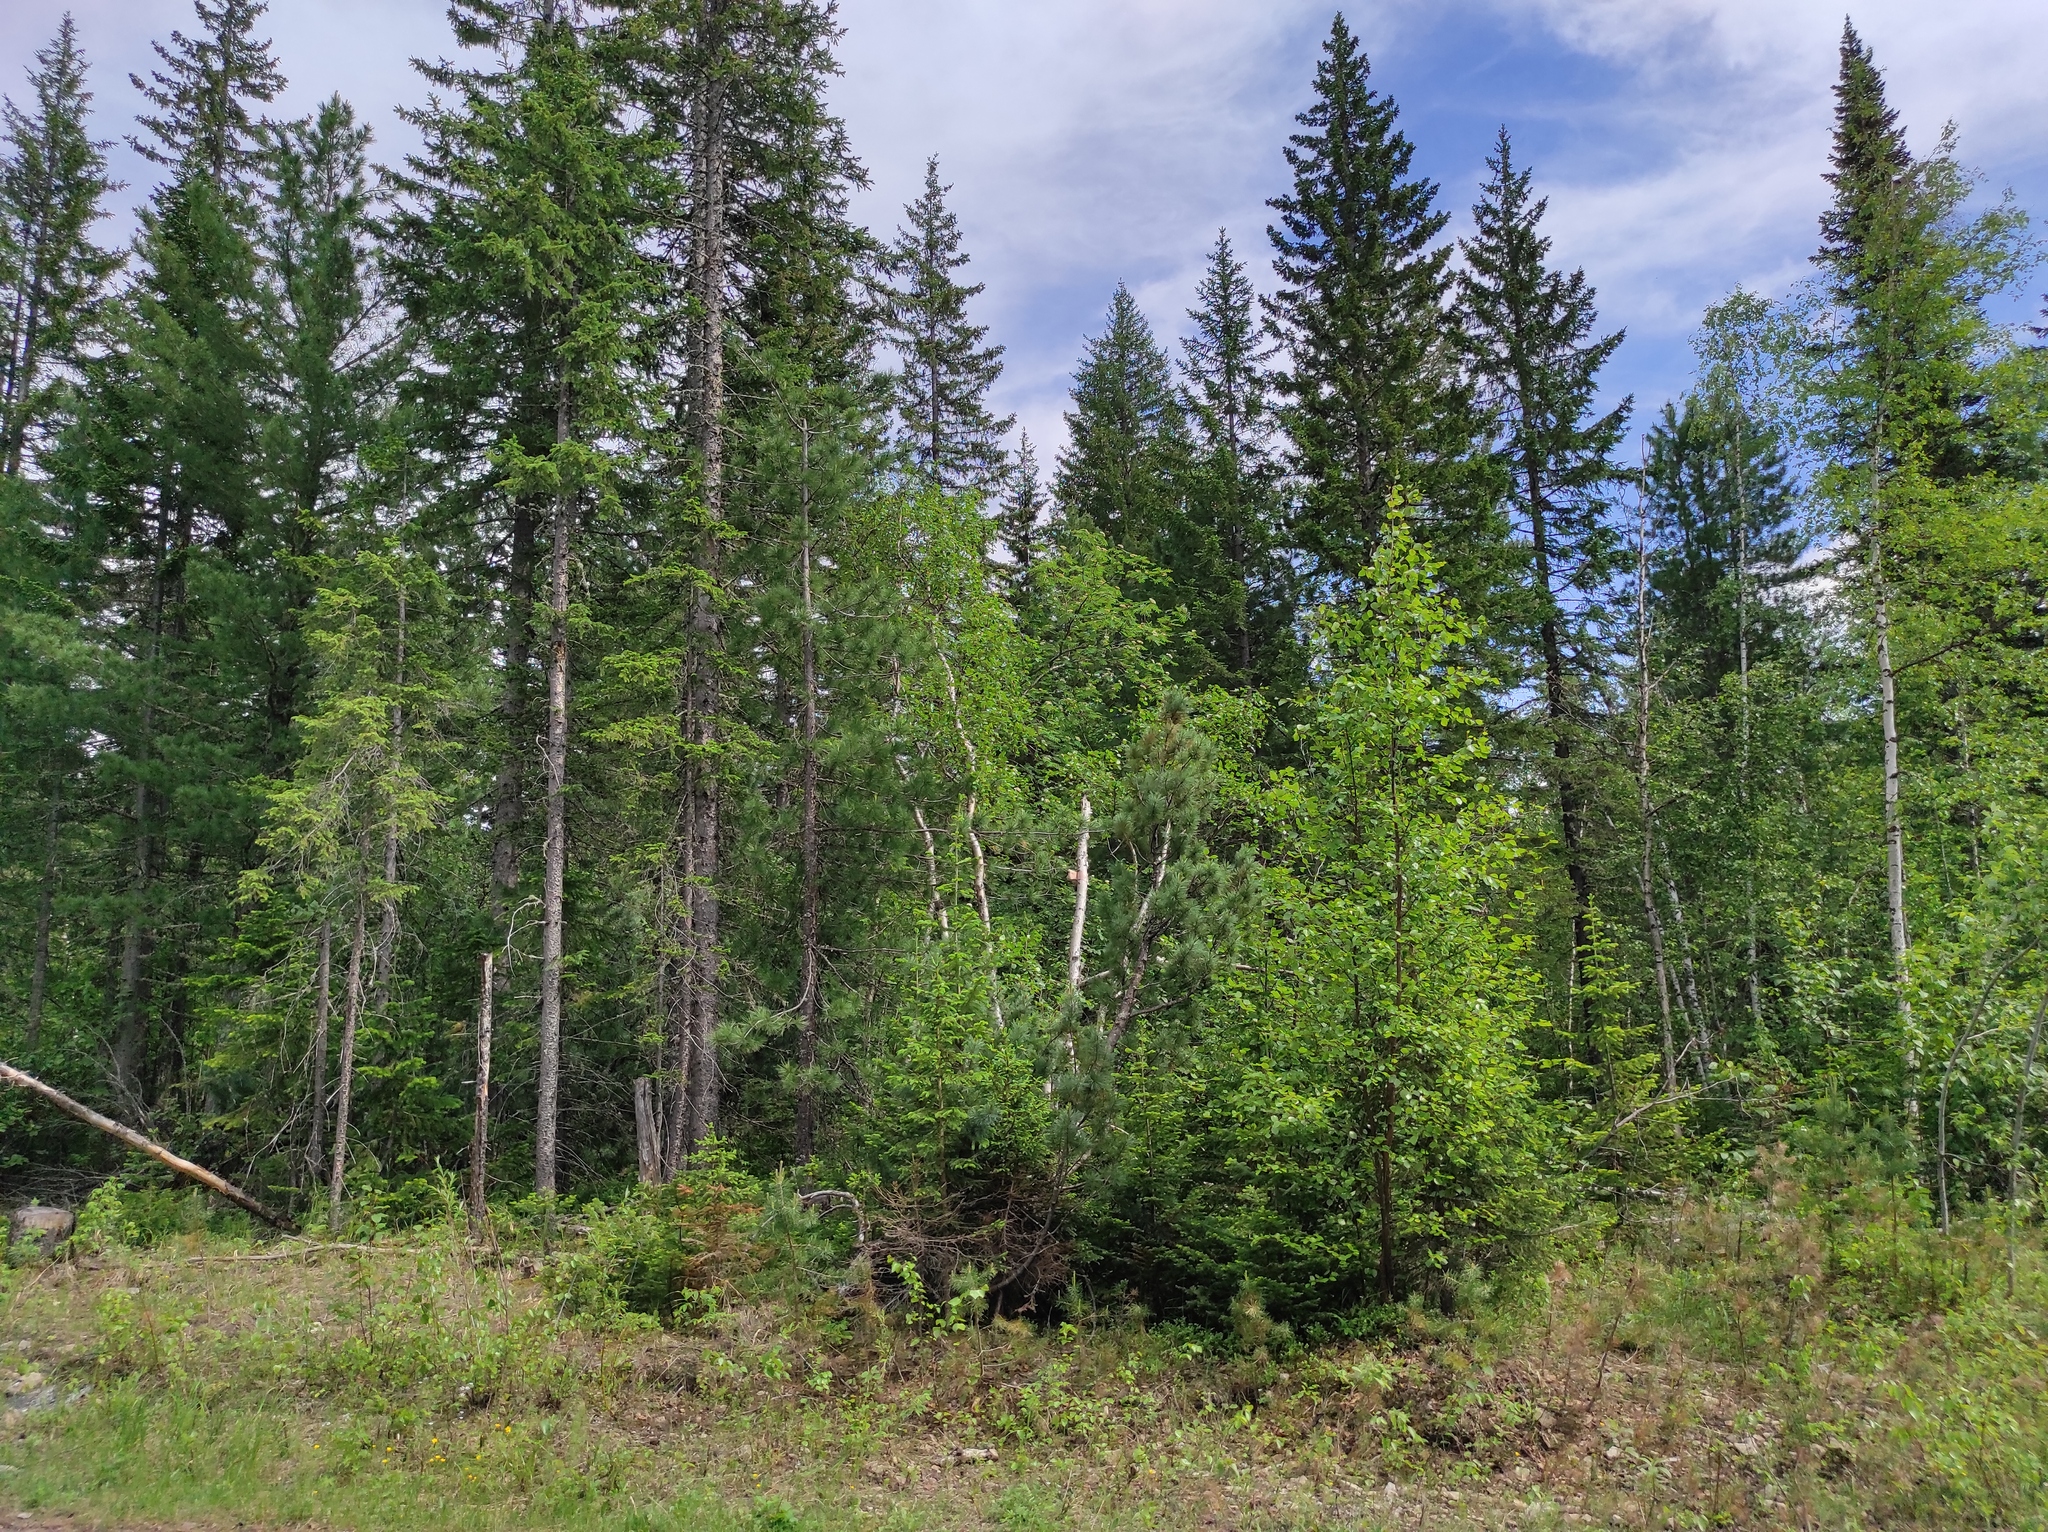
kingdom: Plantae
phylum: Tracheophyta
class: Pinopsida
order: Pinales
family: Pinaceae
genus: Picea
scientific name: Picea obovata
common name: Siberian spruce
